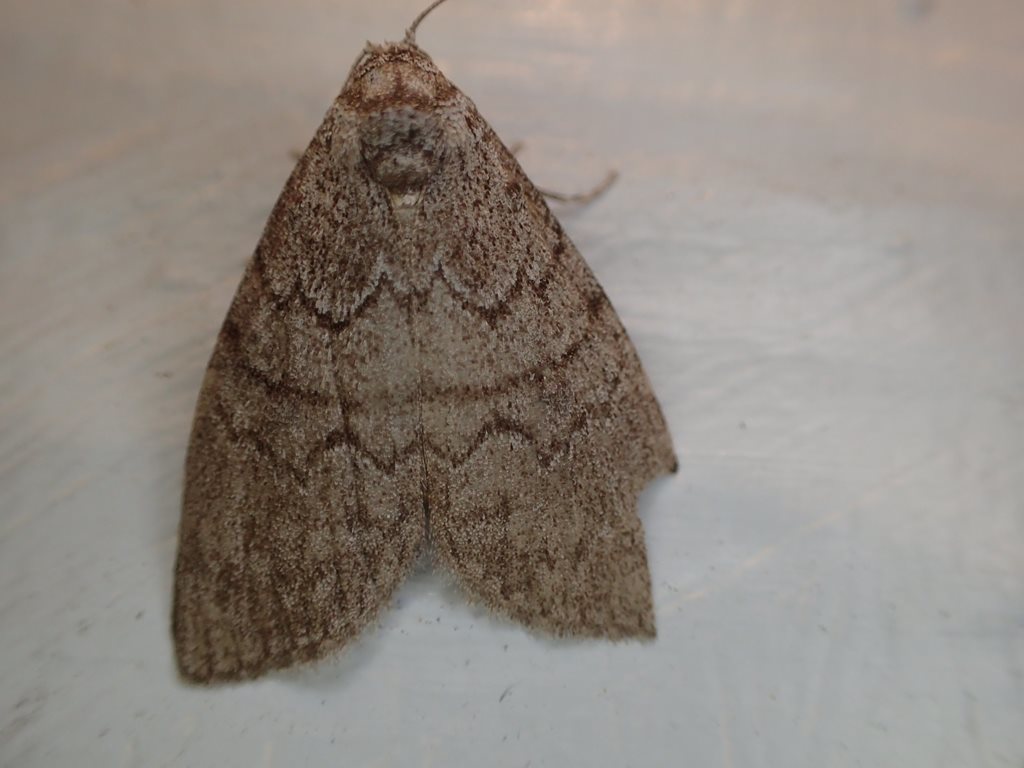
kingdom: Animalia
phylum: Arthropoda
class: Insecta
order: Lepidoptera
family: Nolidae
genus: Uraba
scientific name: Uraba lugens
